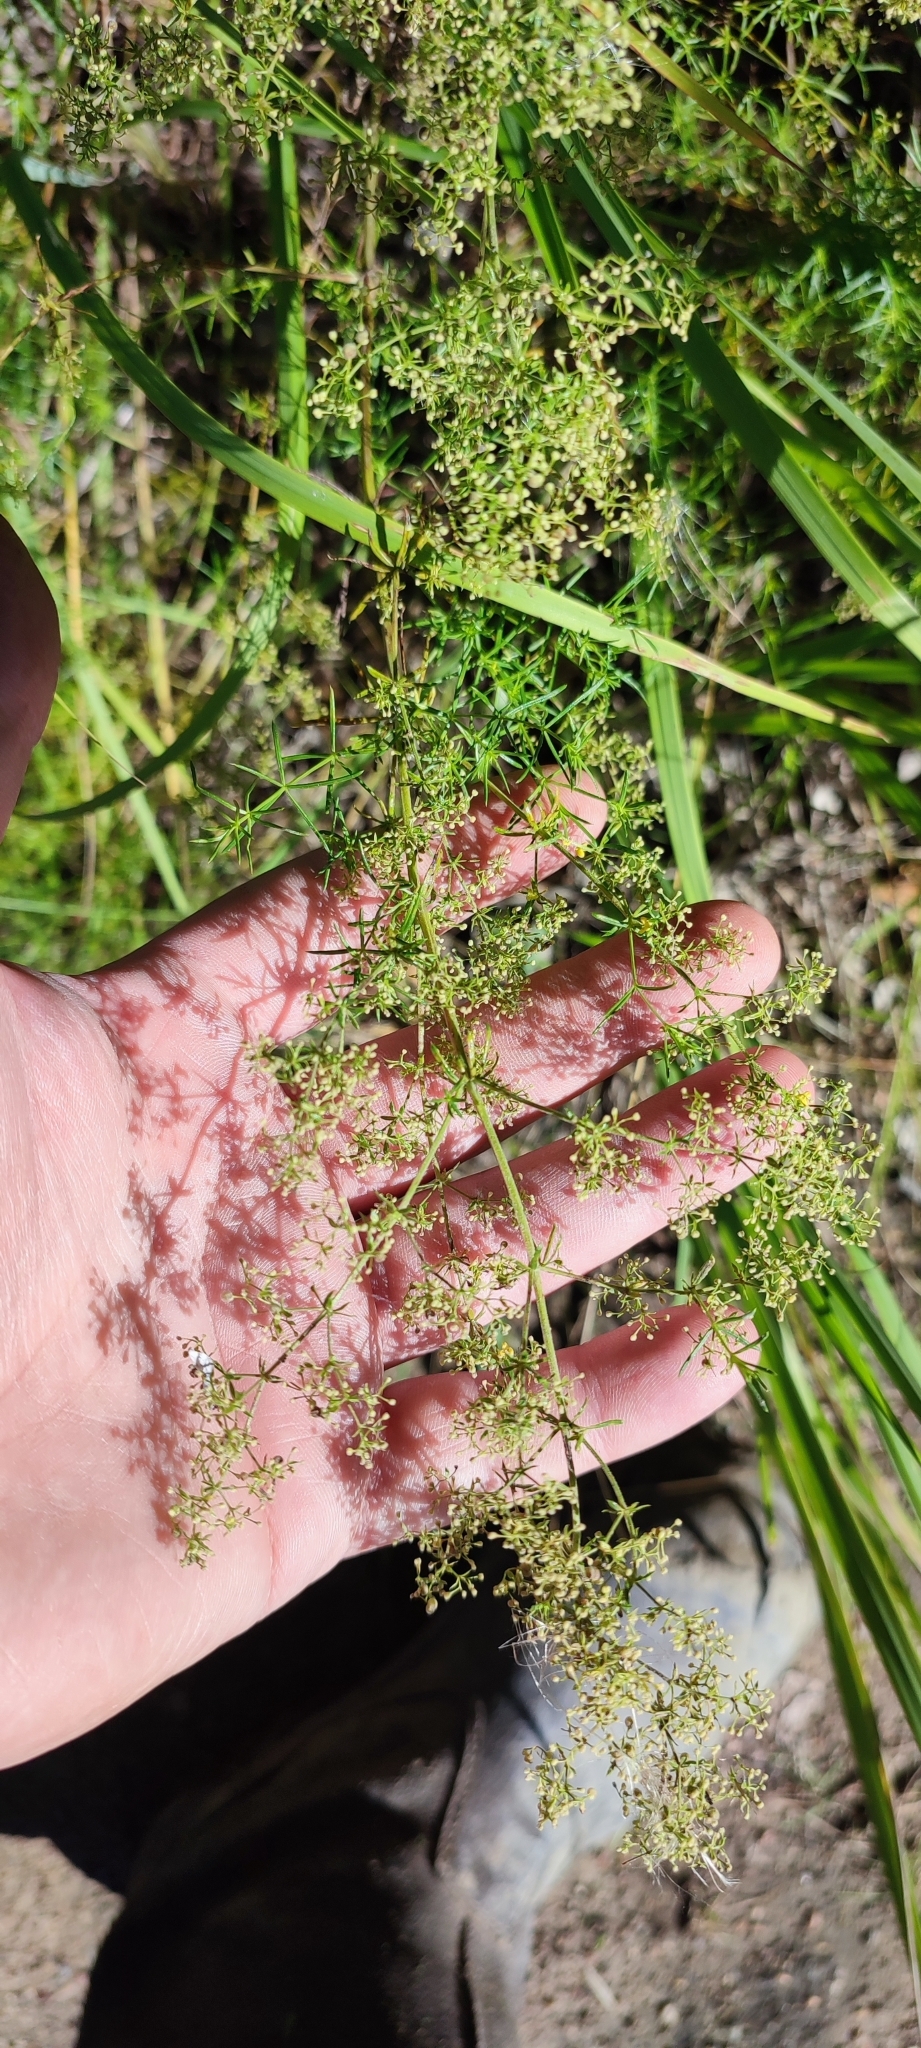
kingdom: Plantae
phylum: Tracheophyta
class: Magnoliopsida
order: Gentianales
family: Rubiaceae
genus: Galium
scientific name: Galium verum
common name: Lady's bedstraw
